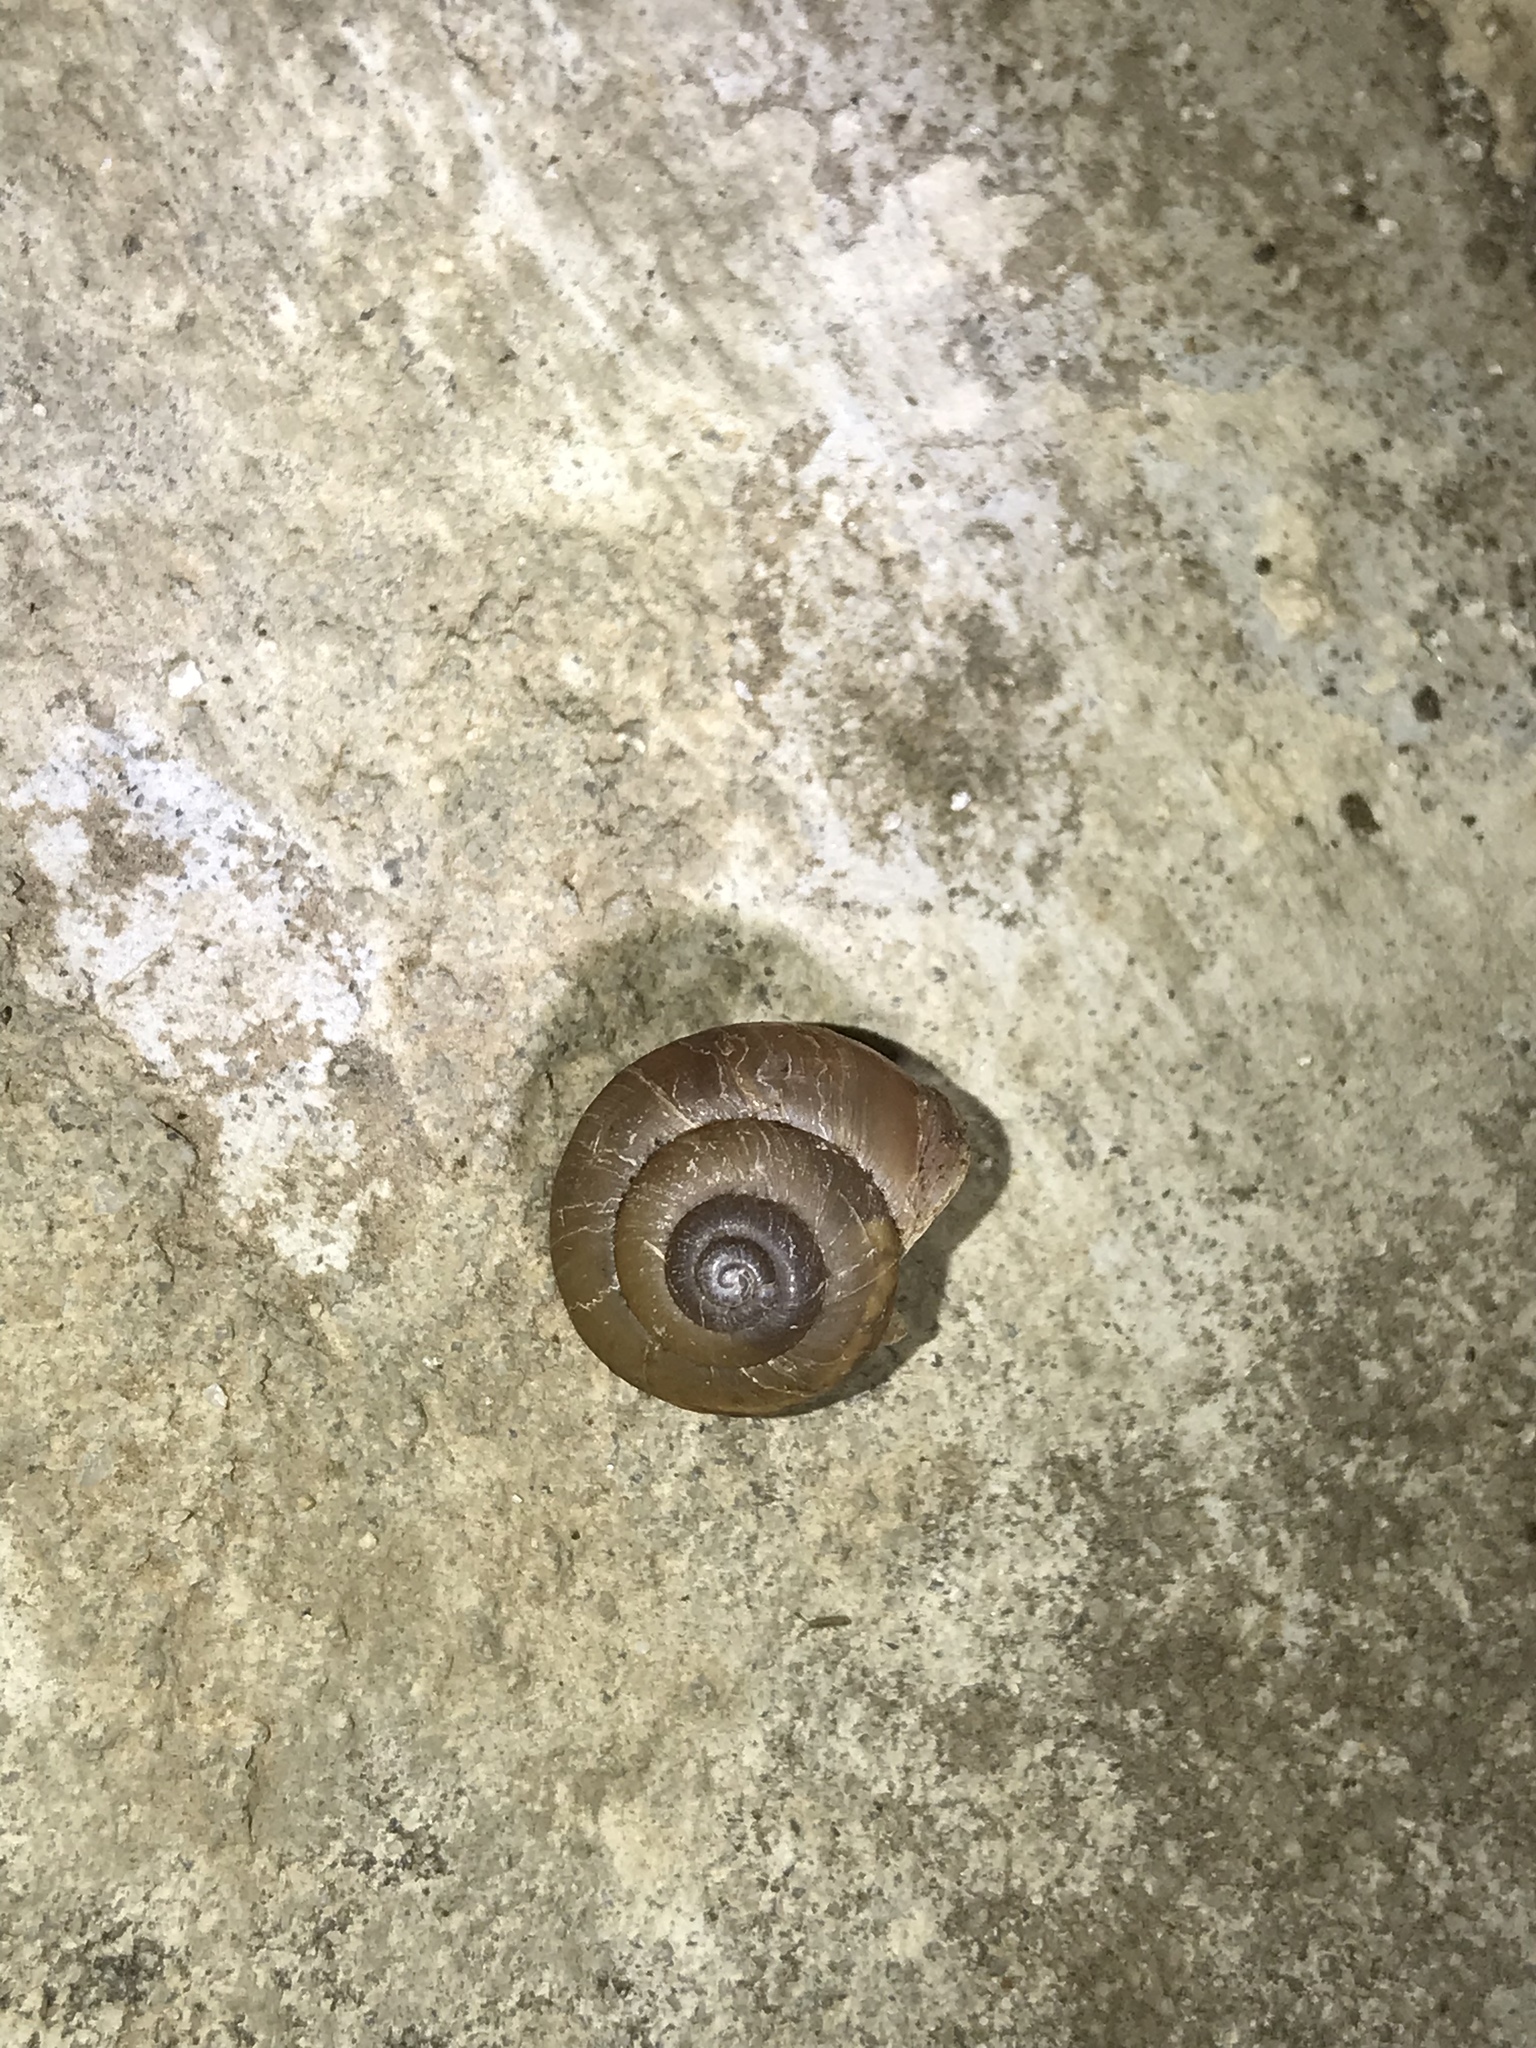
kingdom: Animalia
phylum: Mollusca
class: Gastropoda
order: Stylommatophora
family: Camaenidae
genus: Bradybaena
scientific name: Bradybaena similaris
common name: Asian trampsnail
